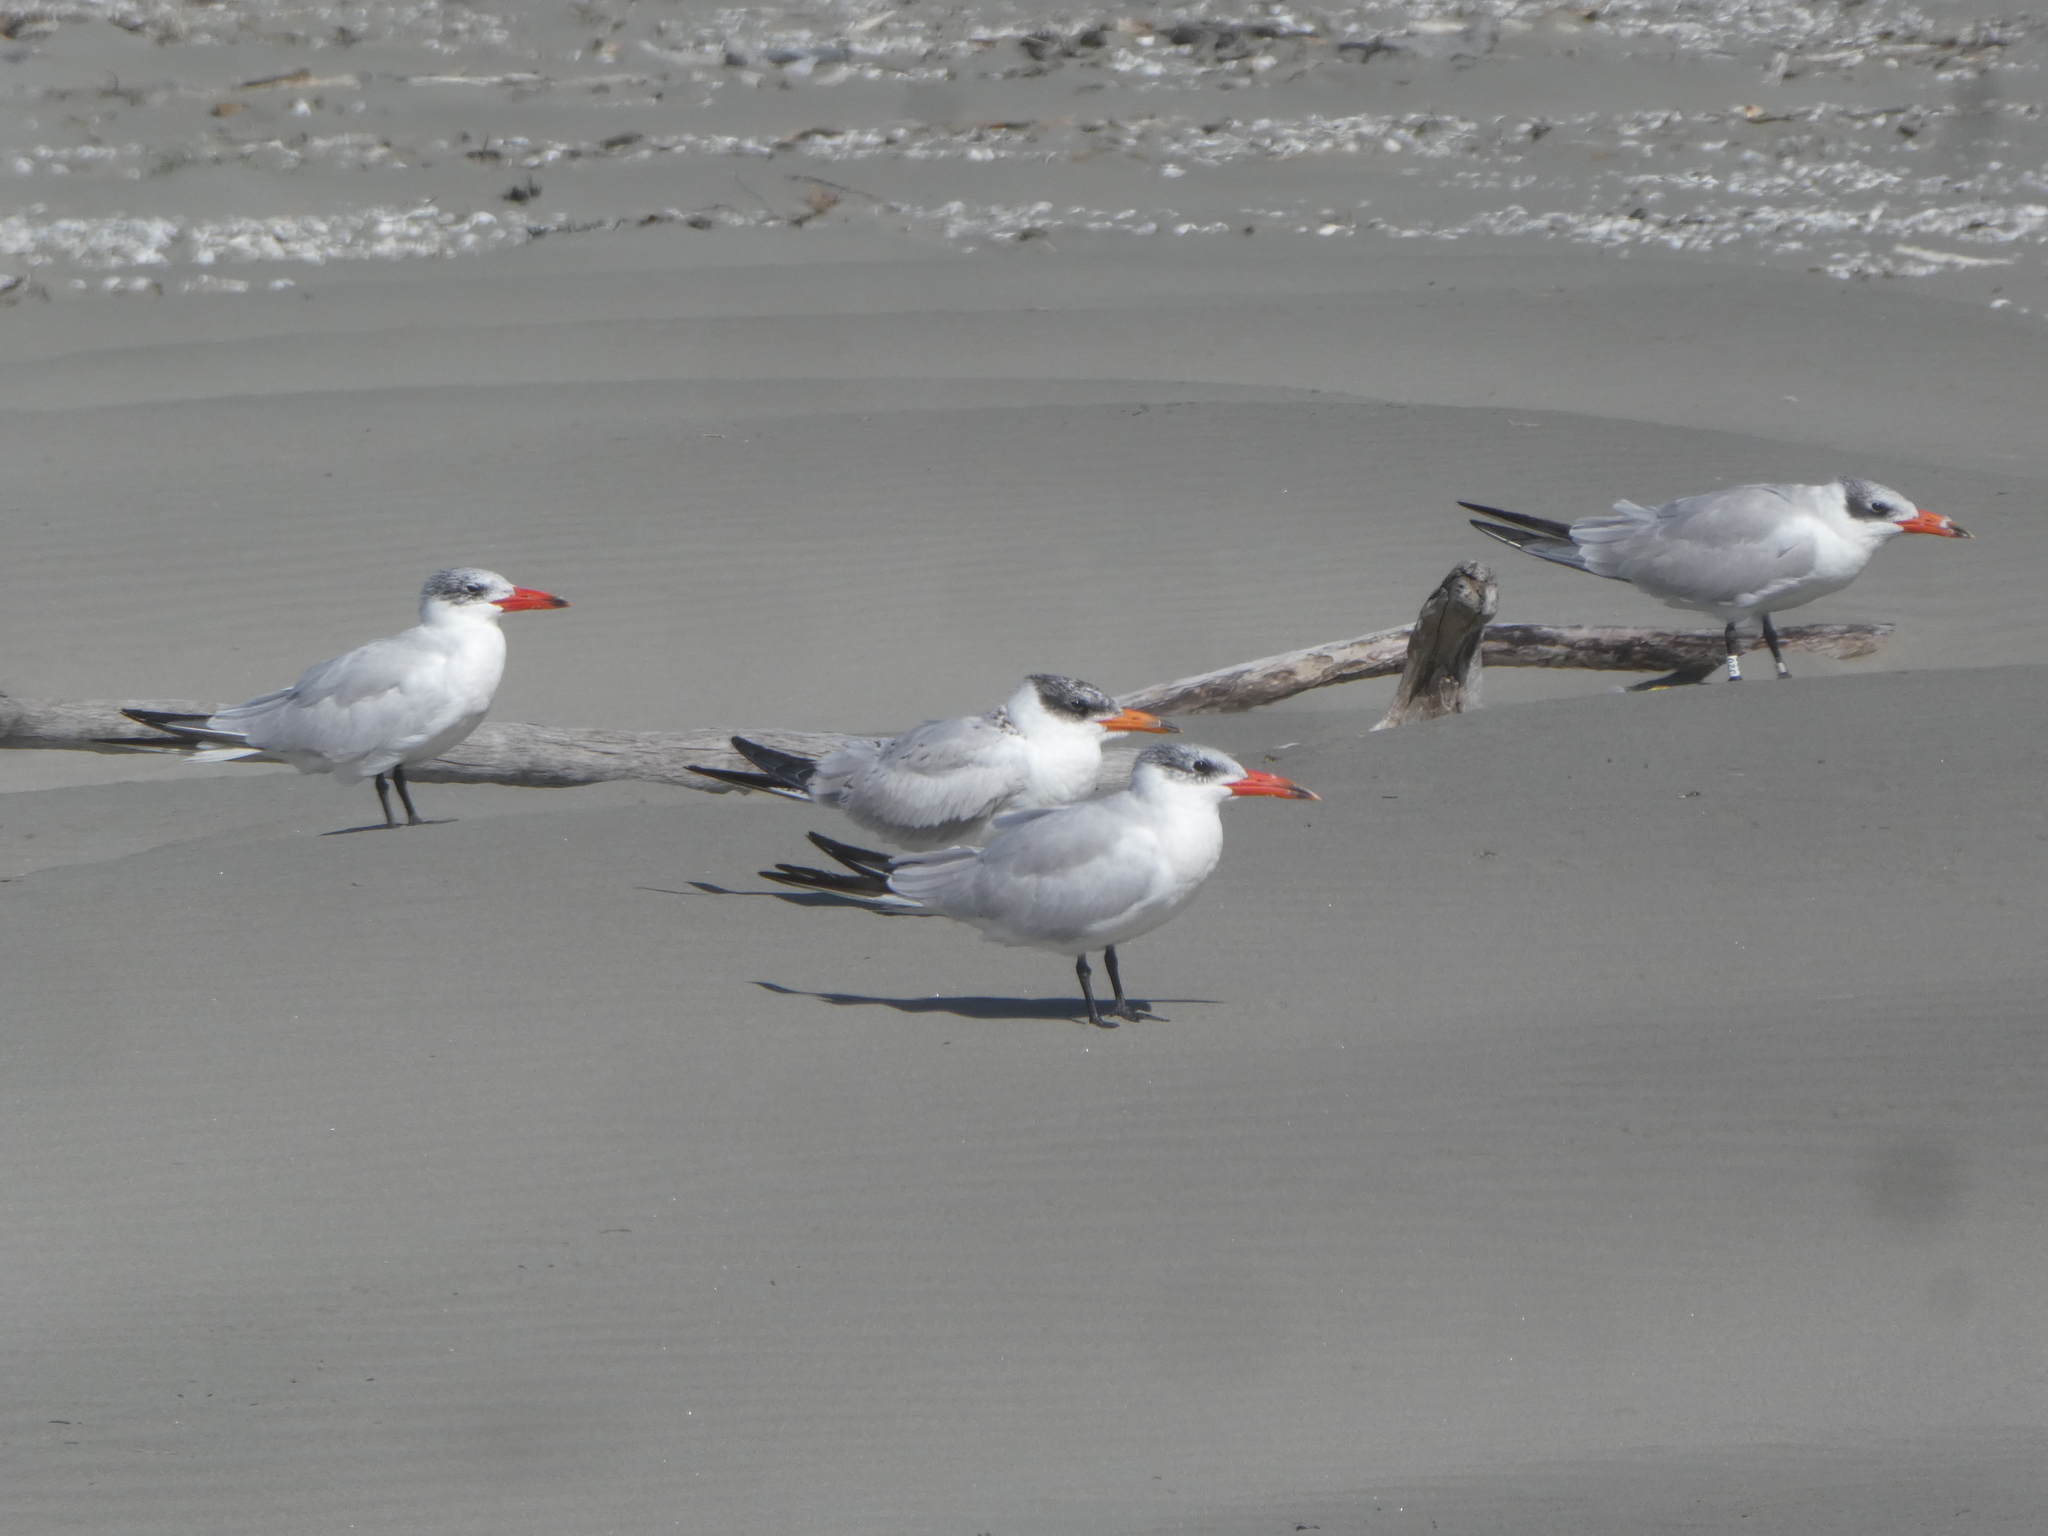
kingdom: Animalia
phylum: Chordata
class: Aves
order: Charadriiformes
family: Laridae
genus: Hydroprogne
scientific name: Hydroprogne caspia
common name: Caspian tern
